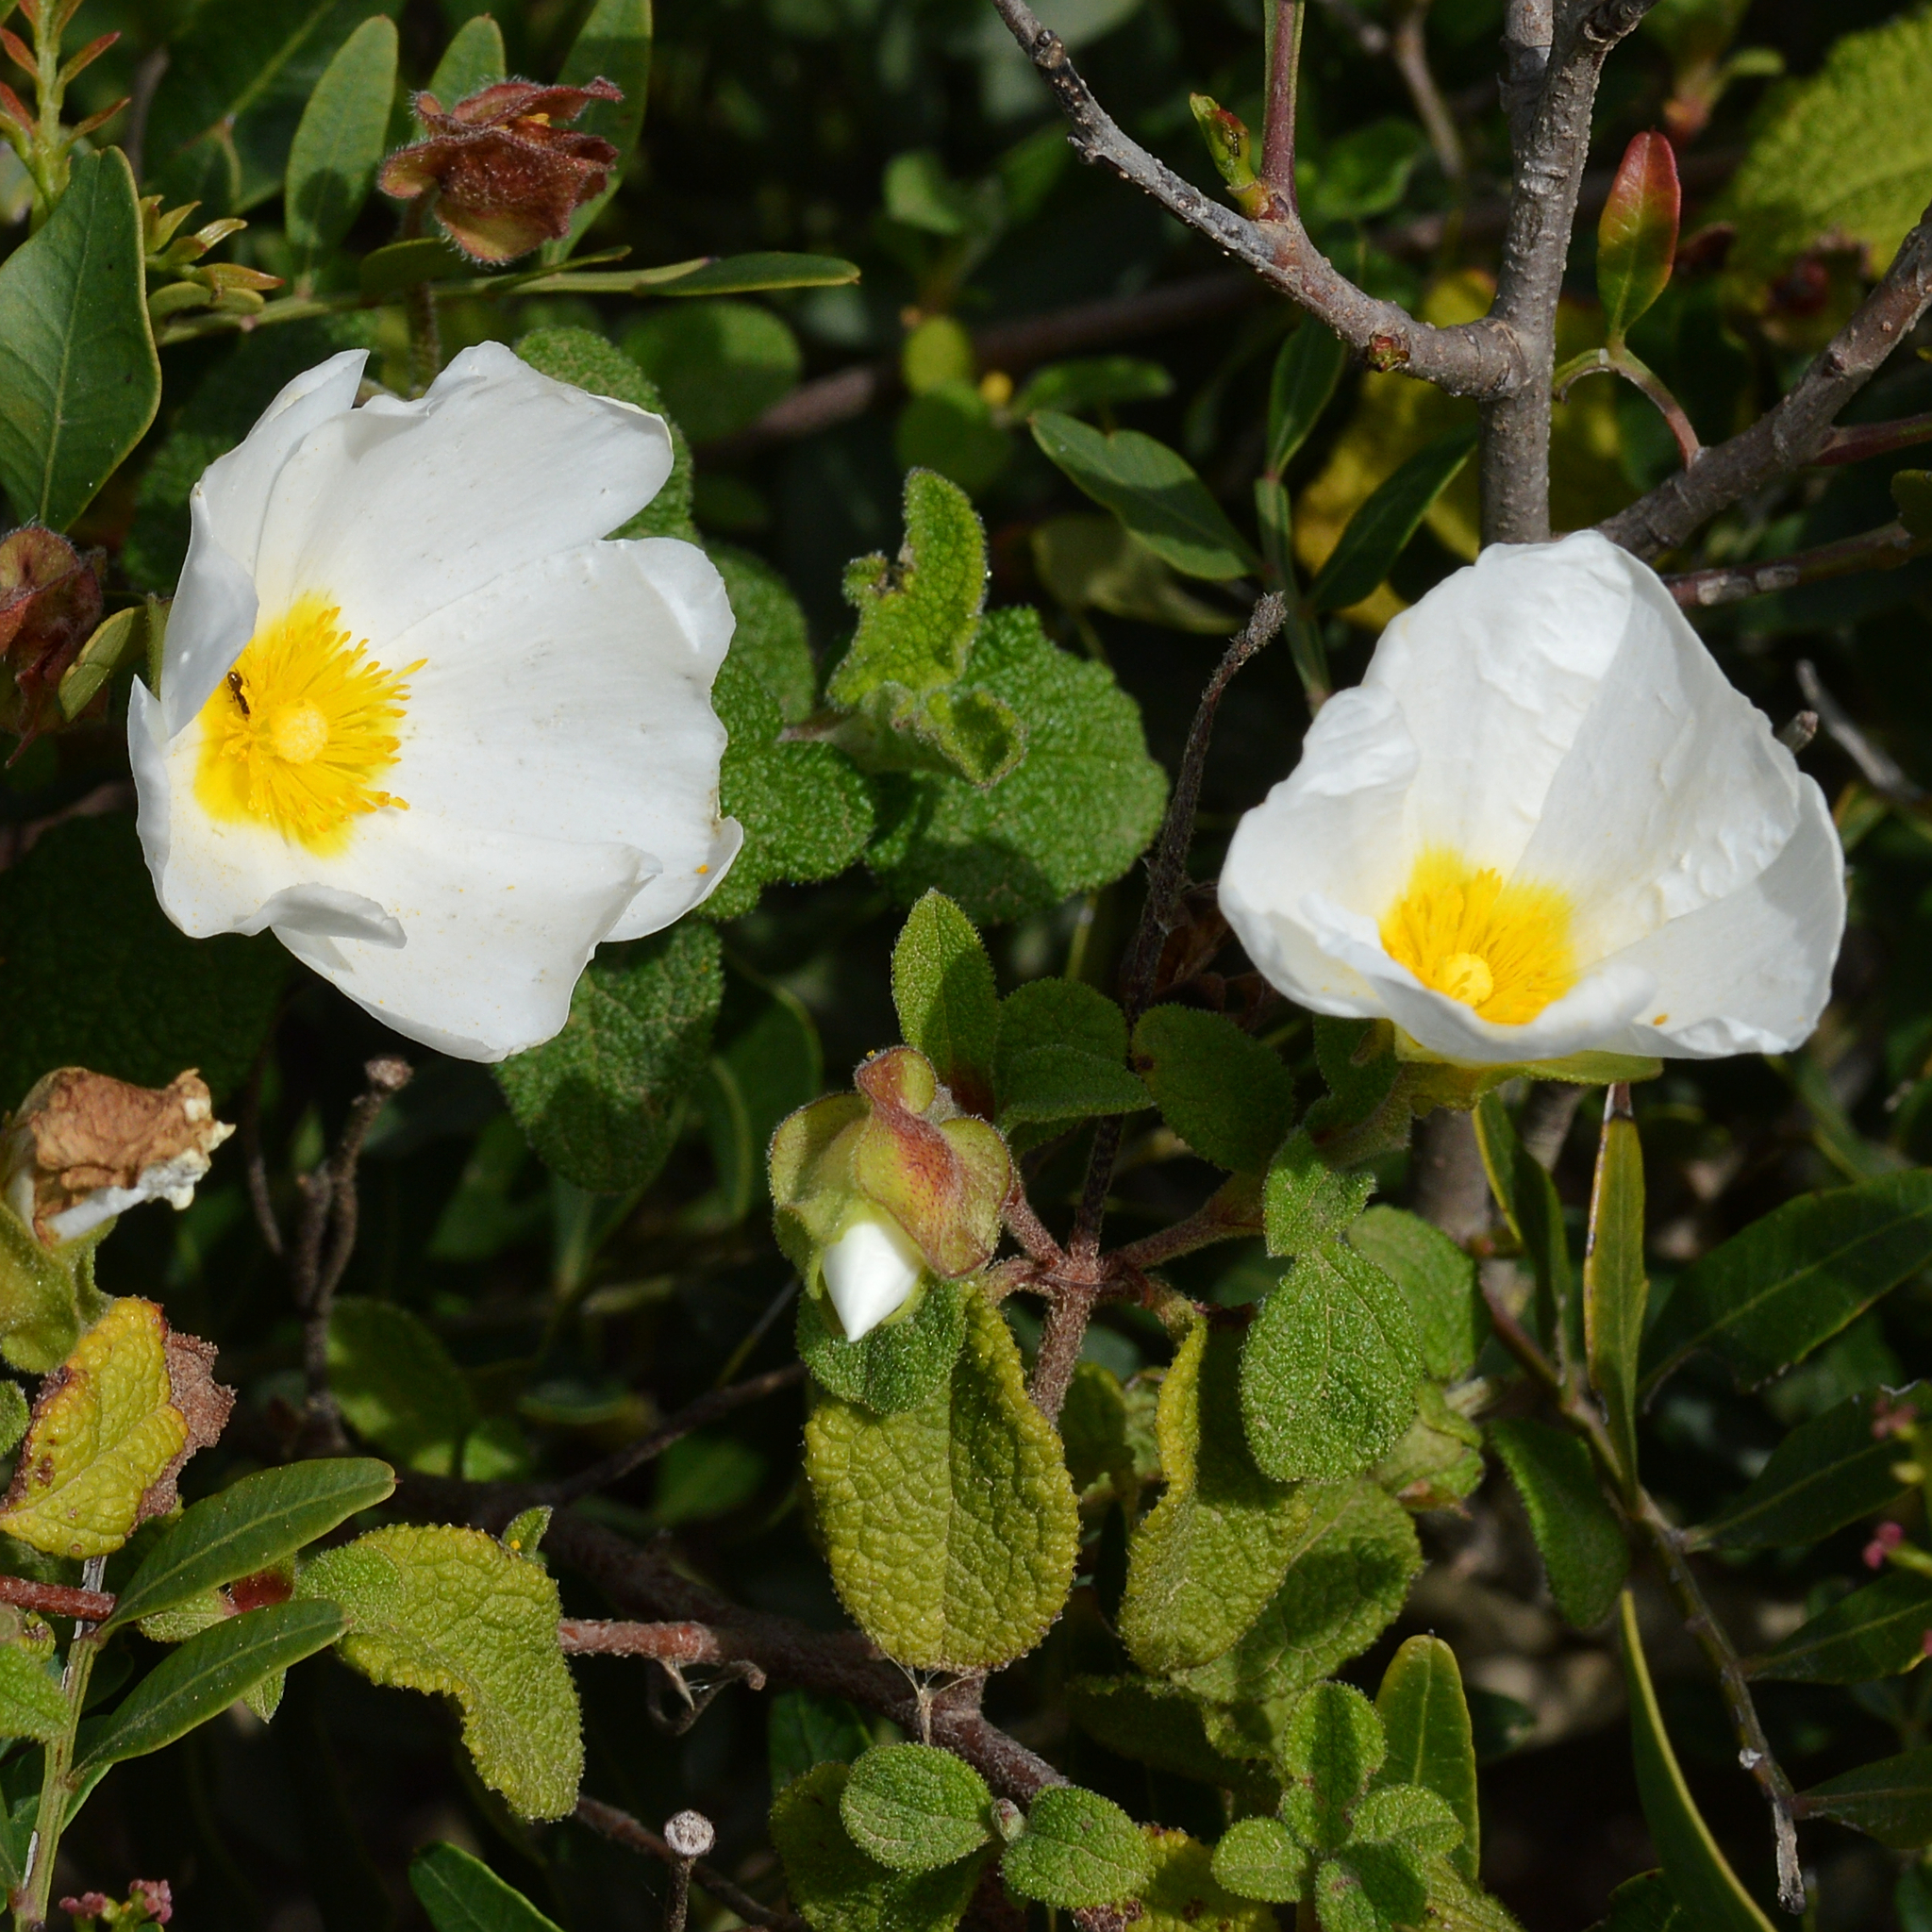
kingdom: Plantae
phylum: Tracheophyta
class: Magnoliopsida
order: Malvales
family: Cistaceae
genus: Cistus
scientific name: Cistus salviifolius
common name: Salvia cistus
